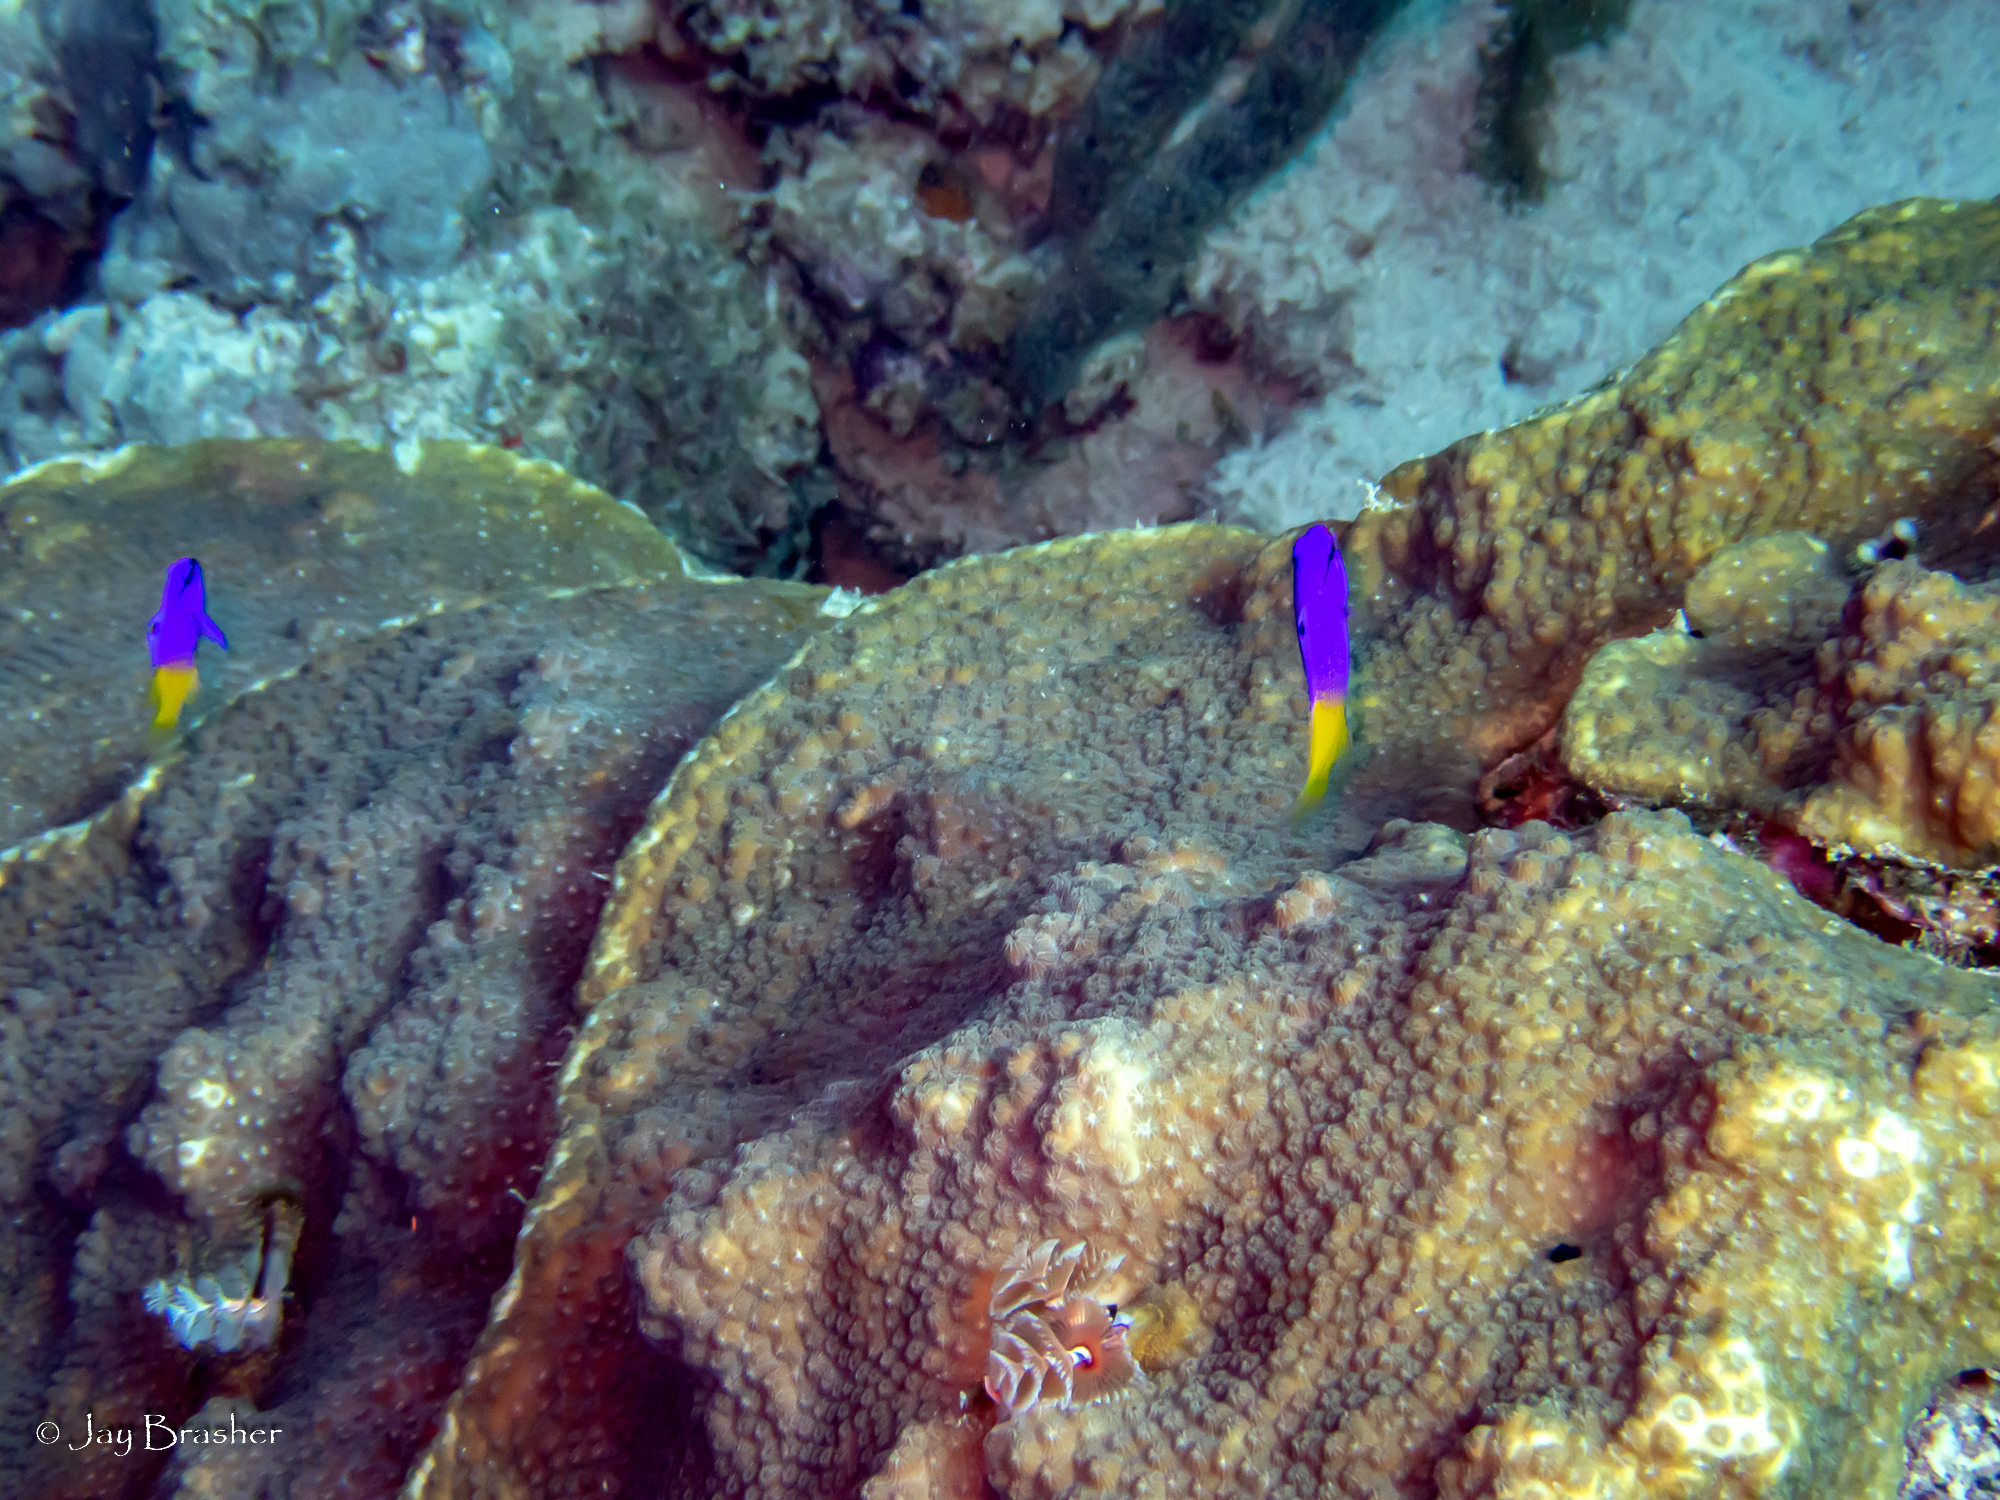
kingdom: Animalia
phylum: Chordata
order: Perciformes
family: Grammatidae
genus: Gramma
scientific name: Gramma loreto
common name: Fairy basslet
